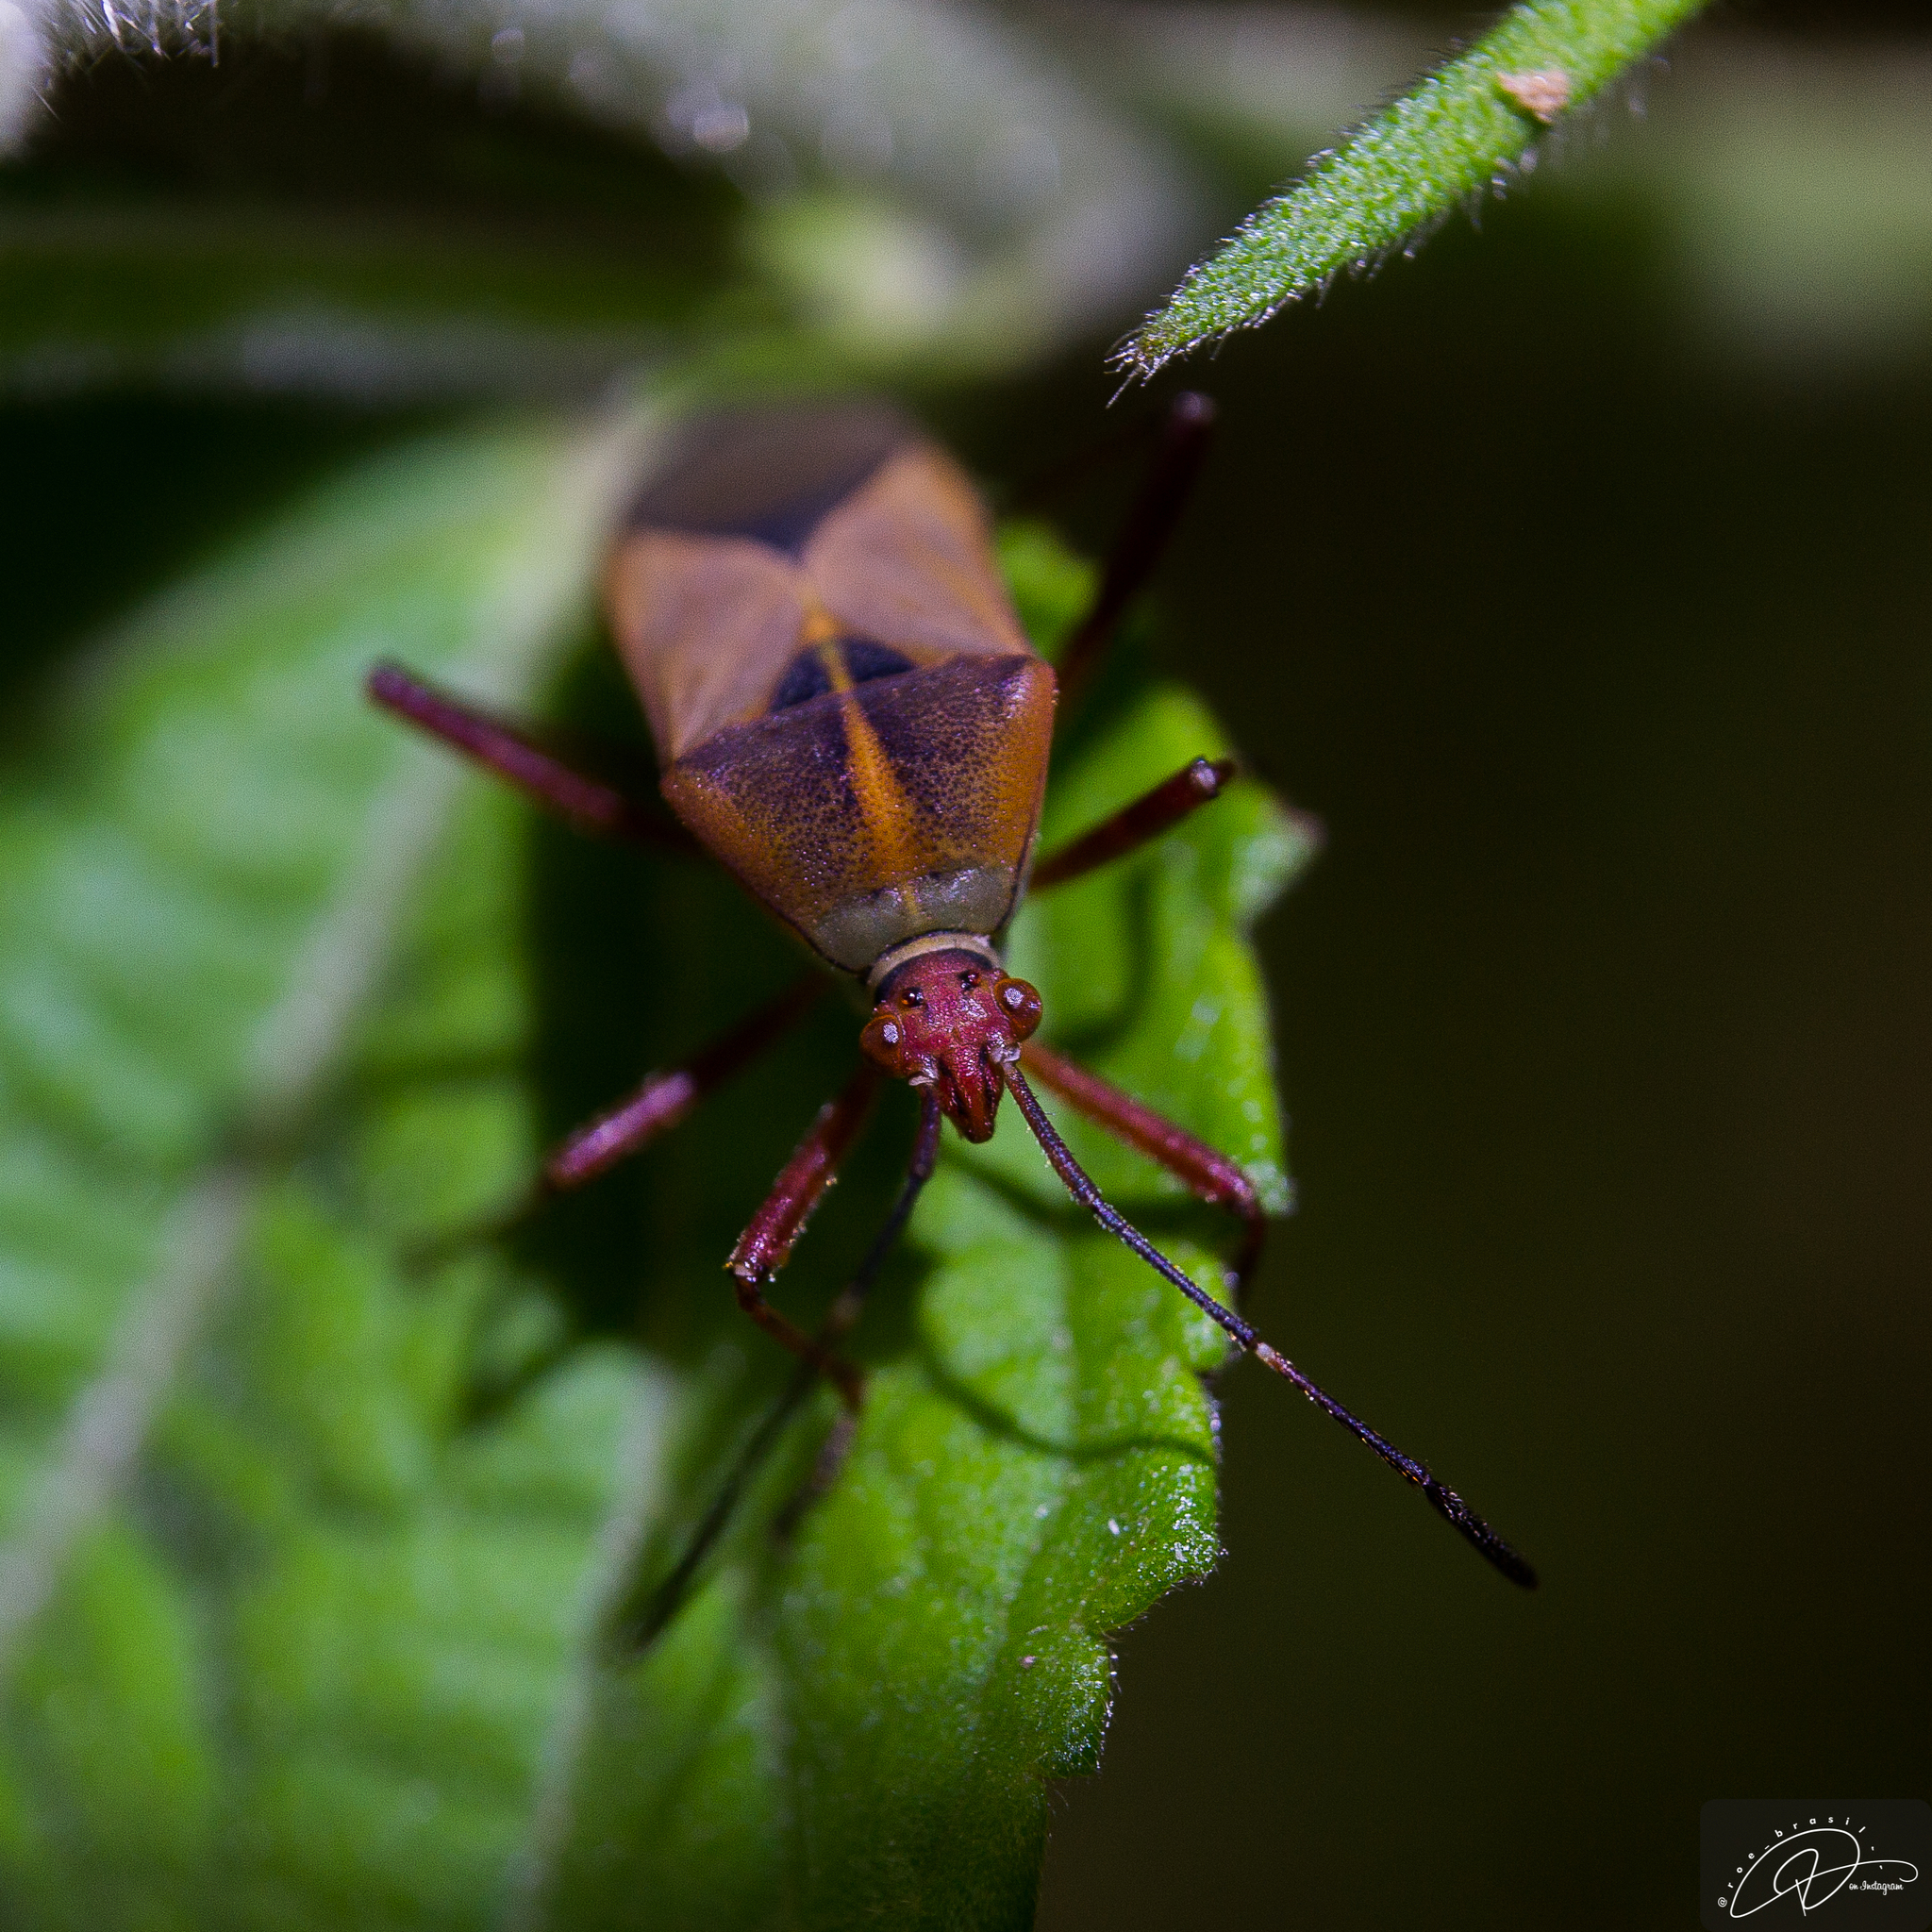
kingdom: Animalia
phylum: Arthropoda
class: Insecta
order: Hemiptera
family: Coreidae
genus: Hypselonotus
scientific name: Hypselonotus interruptus
